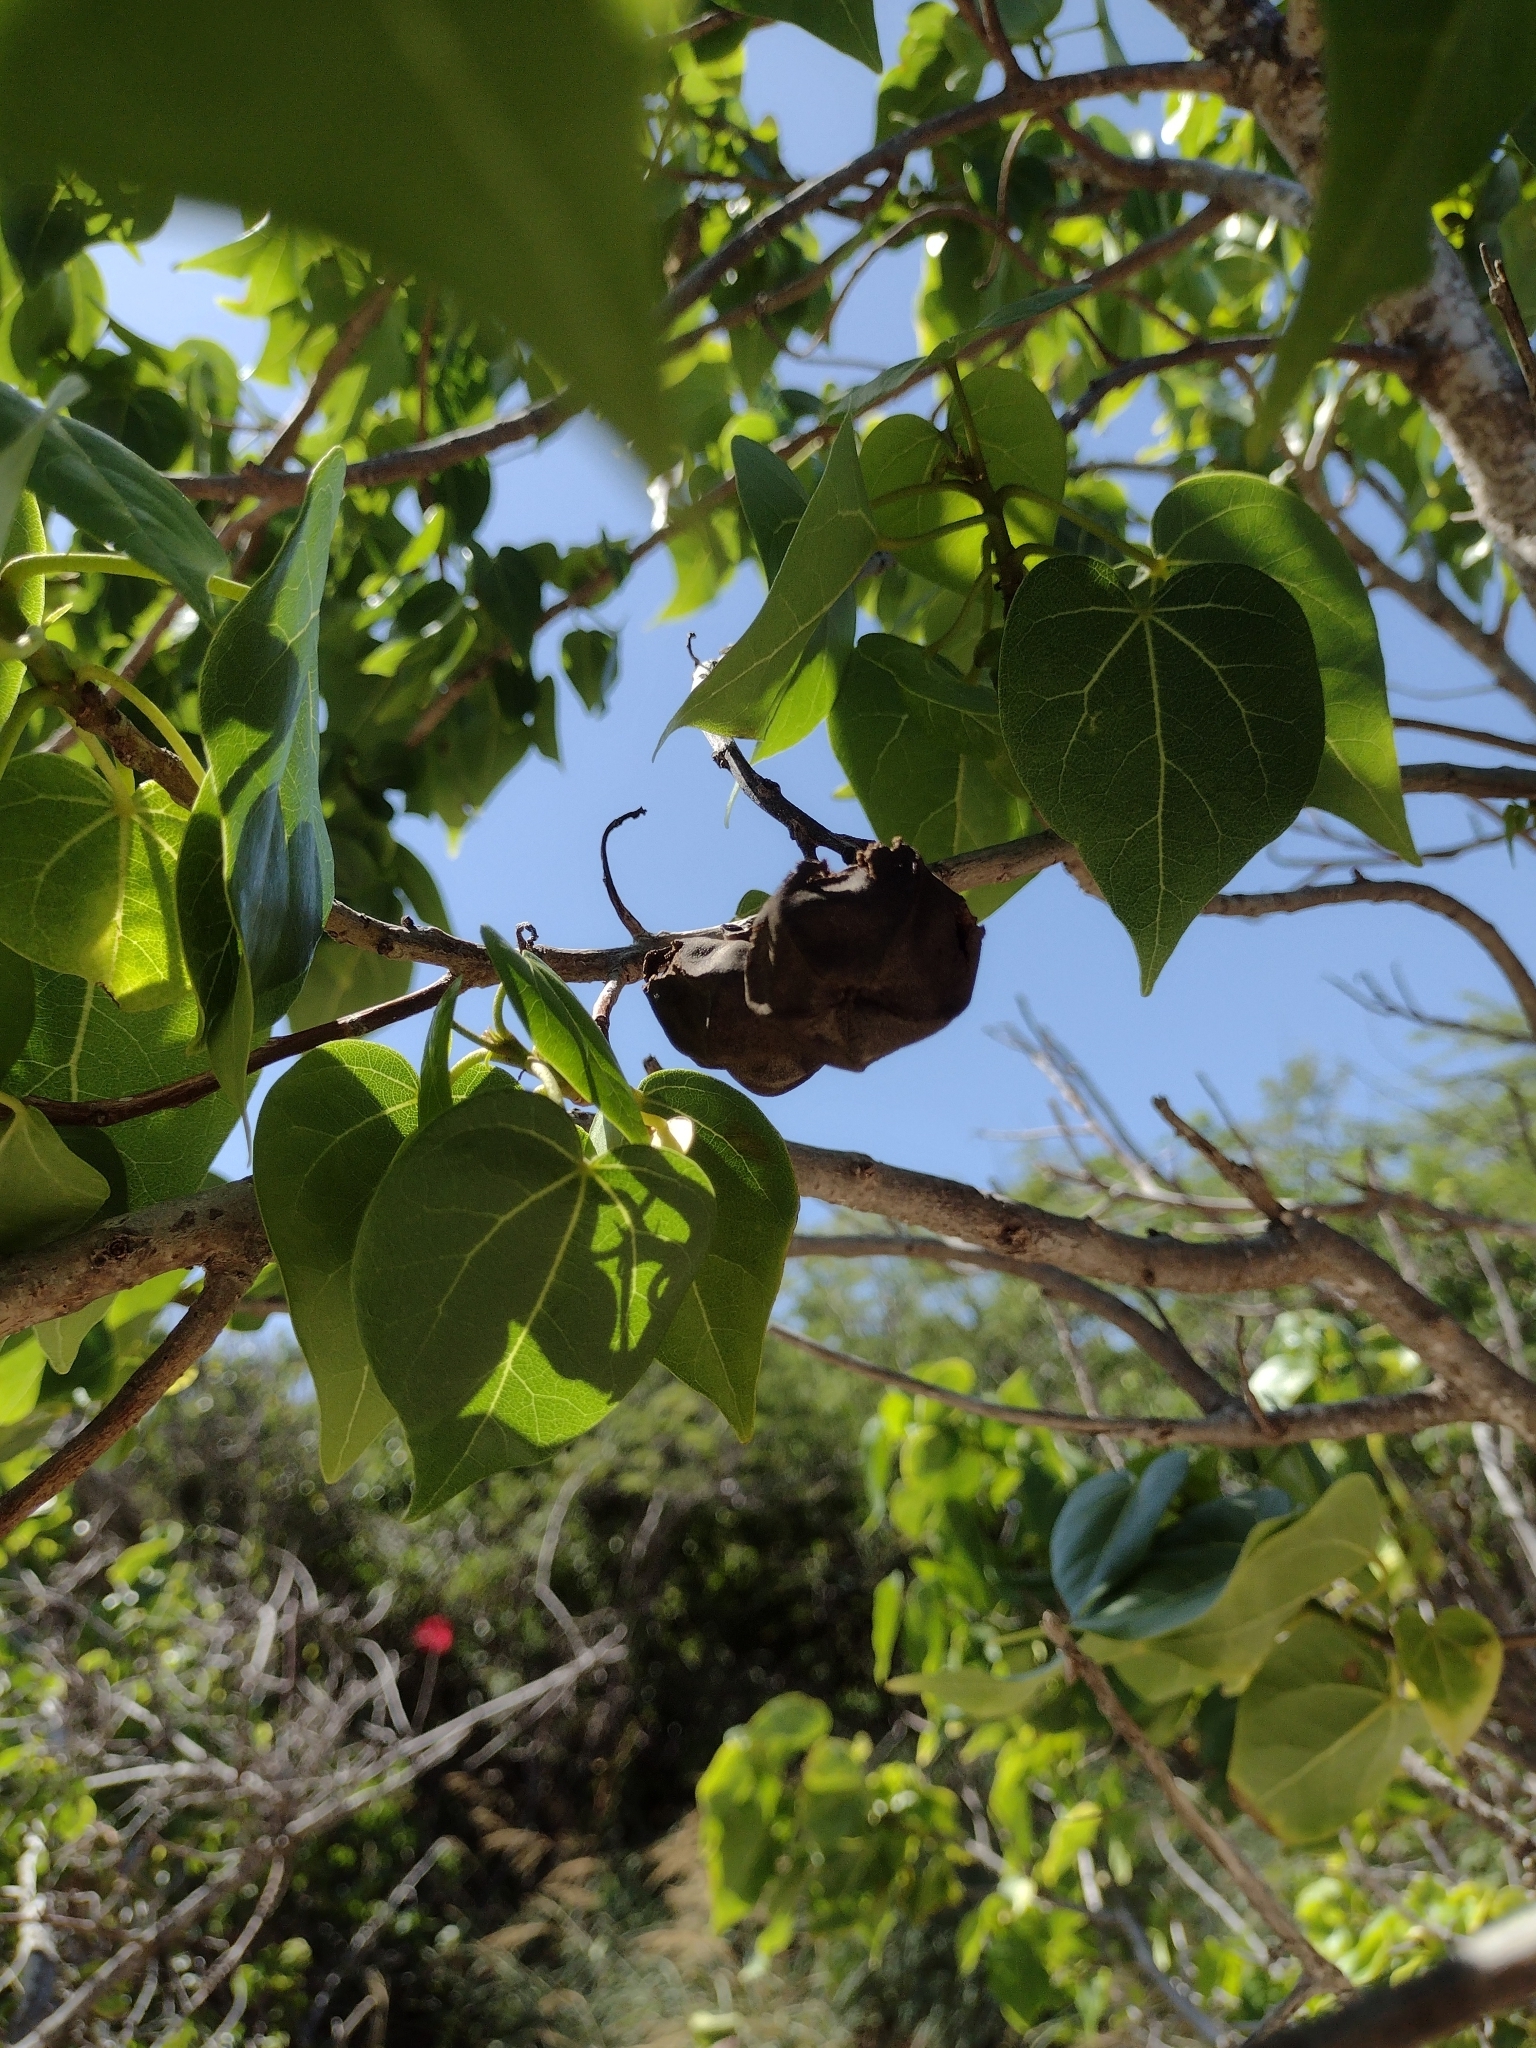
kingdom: Plantae
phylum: Tracheophyta
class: Magnoliopsida
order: Malvales
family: Malvaceae
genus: Thespesia
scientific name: Thespesia populnea
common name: Seaside mahoe
